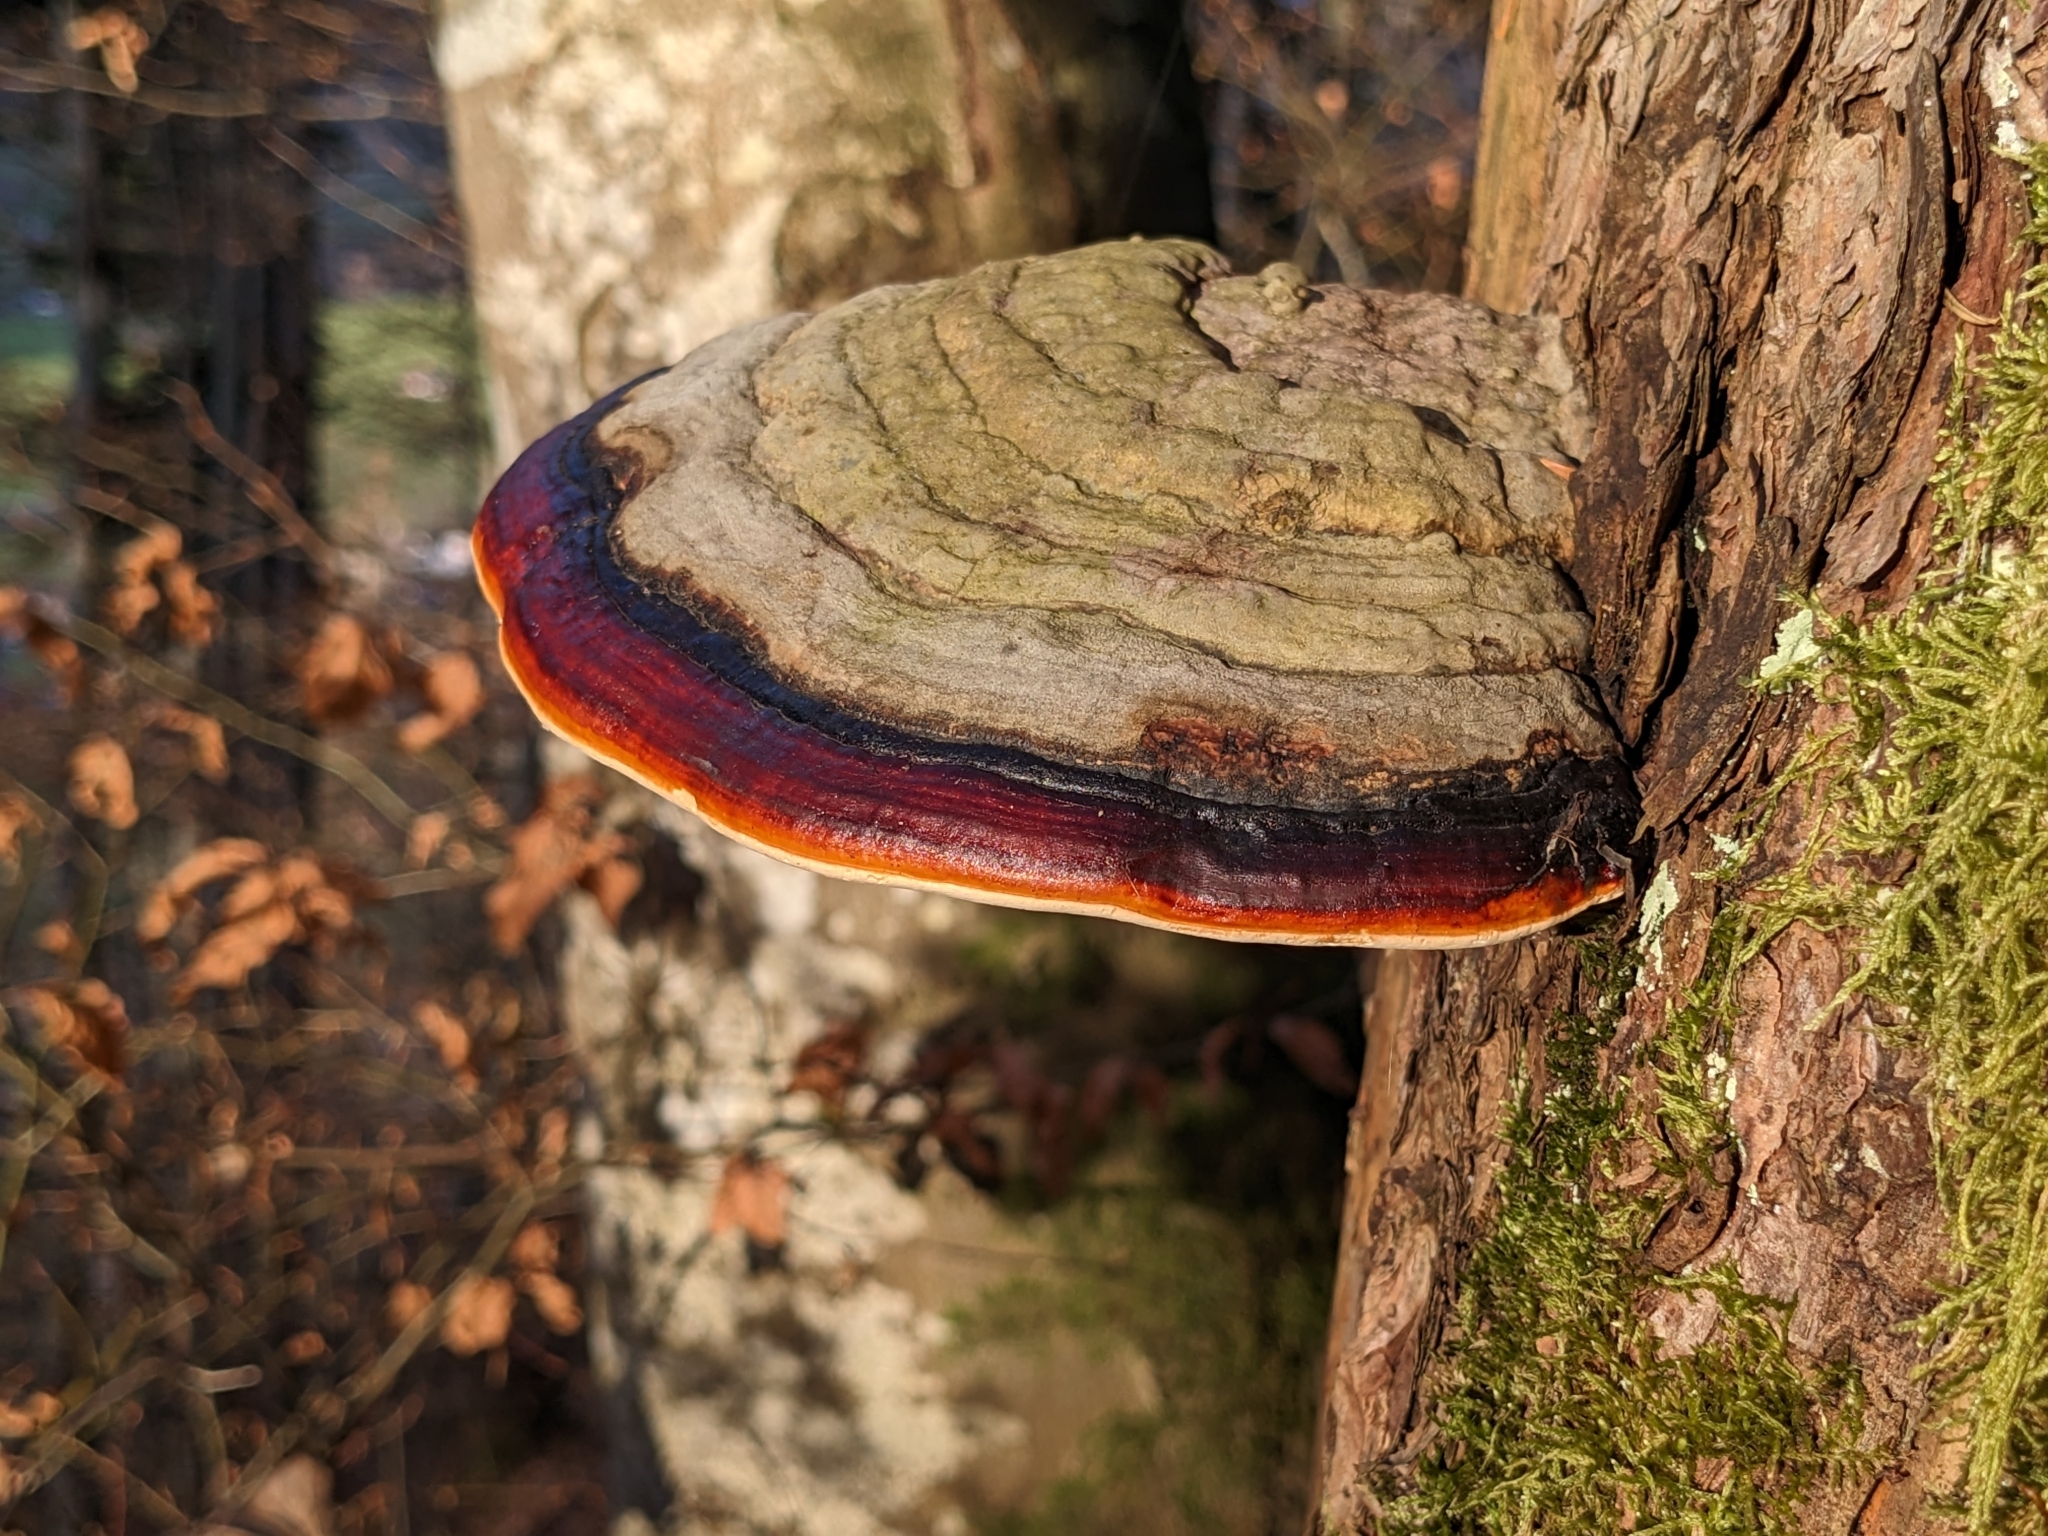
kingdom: Fungi
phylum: Basidiomycota
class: Agaricomycetes
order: Polyporales
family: Fomitopsidaceae
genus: Fomitopsis
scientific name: Fomitopsis pinicola
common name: Red-belted bracket
